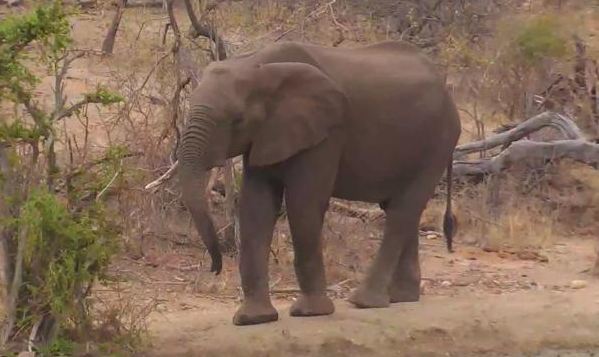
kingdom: Animalia
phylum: Chordata
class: Mammalia
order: Proboscidea
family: Elephantidae
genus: Loxodonta
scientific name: Loxodonta africana
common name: African elephant
